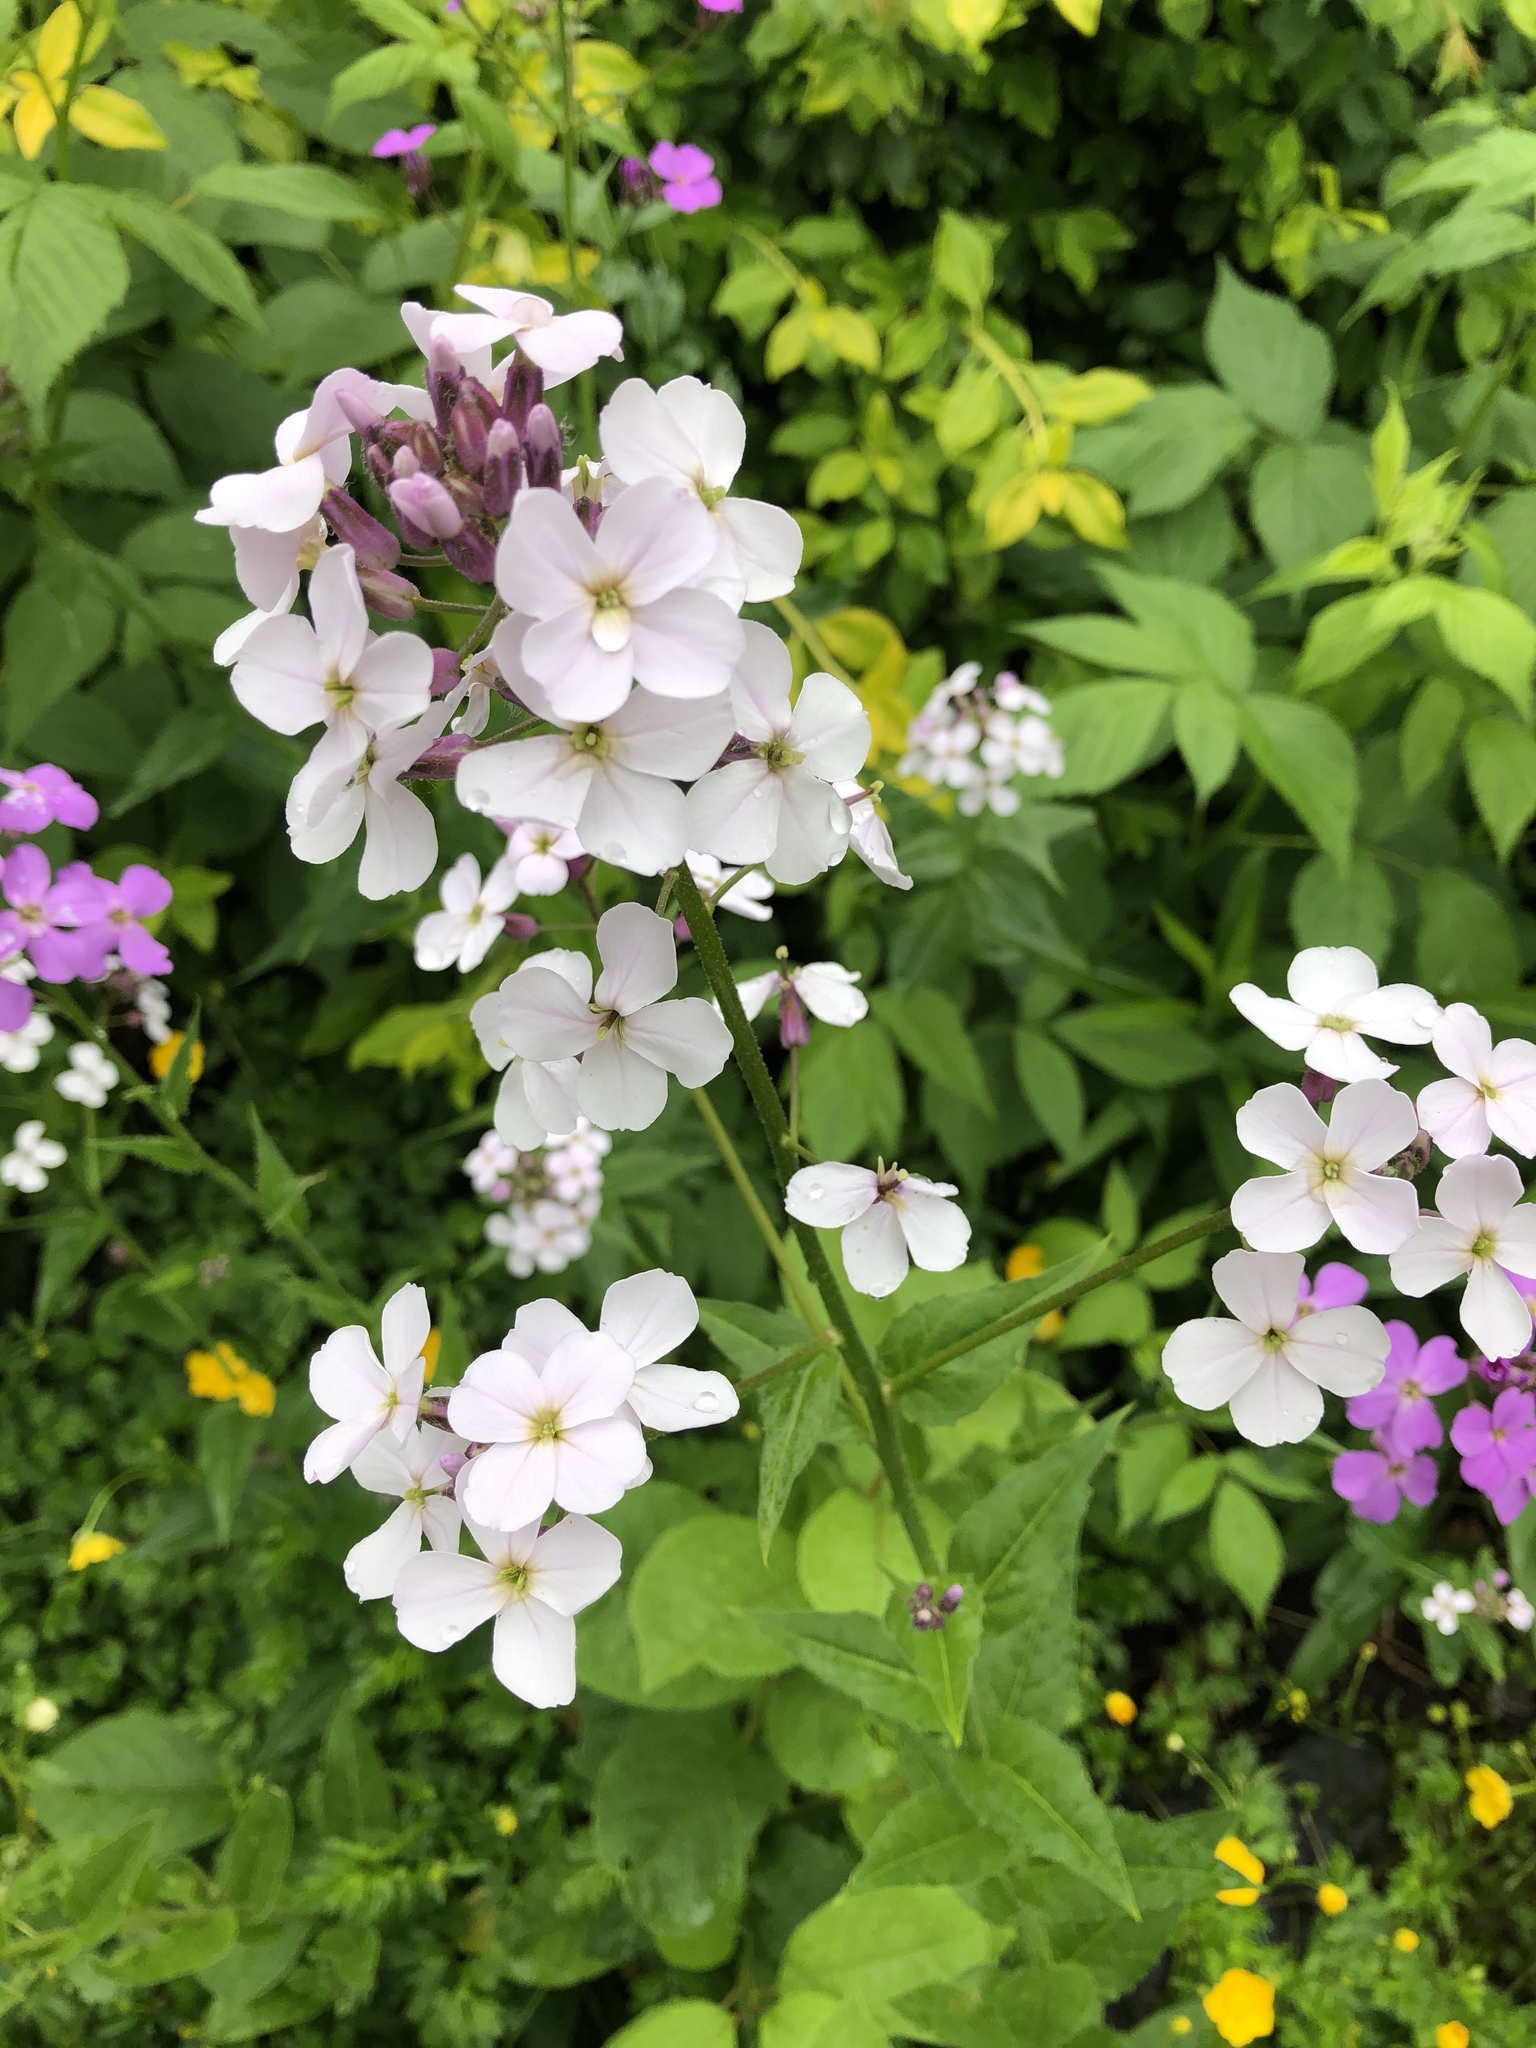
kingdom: Plantae
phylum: Tracheophyta
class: Magnoliopsida
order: Brassicales
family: Brassicaceae
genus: Hesperis
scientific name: Hesperis matronalis
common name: Dame's-violet
